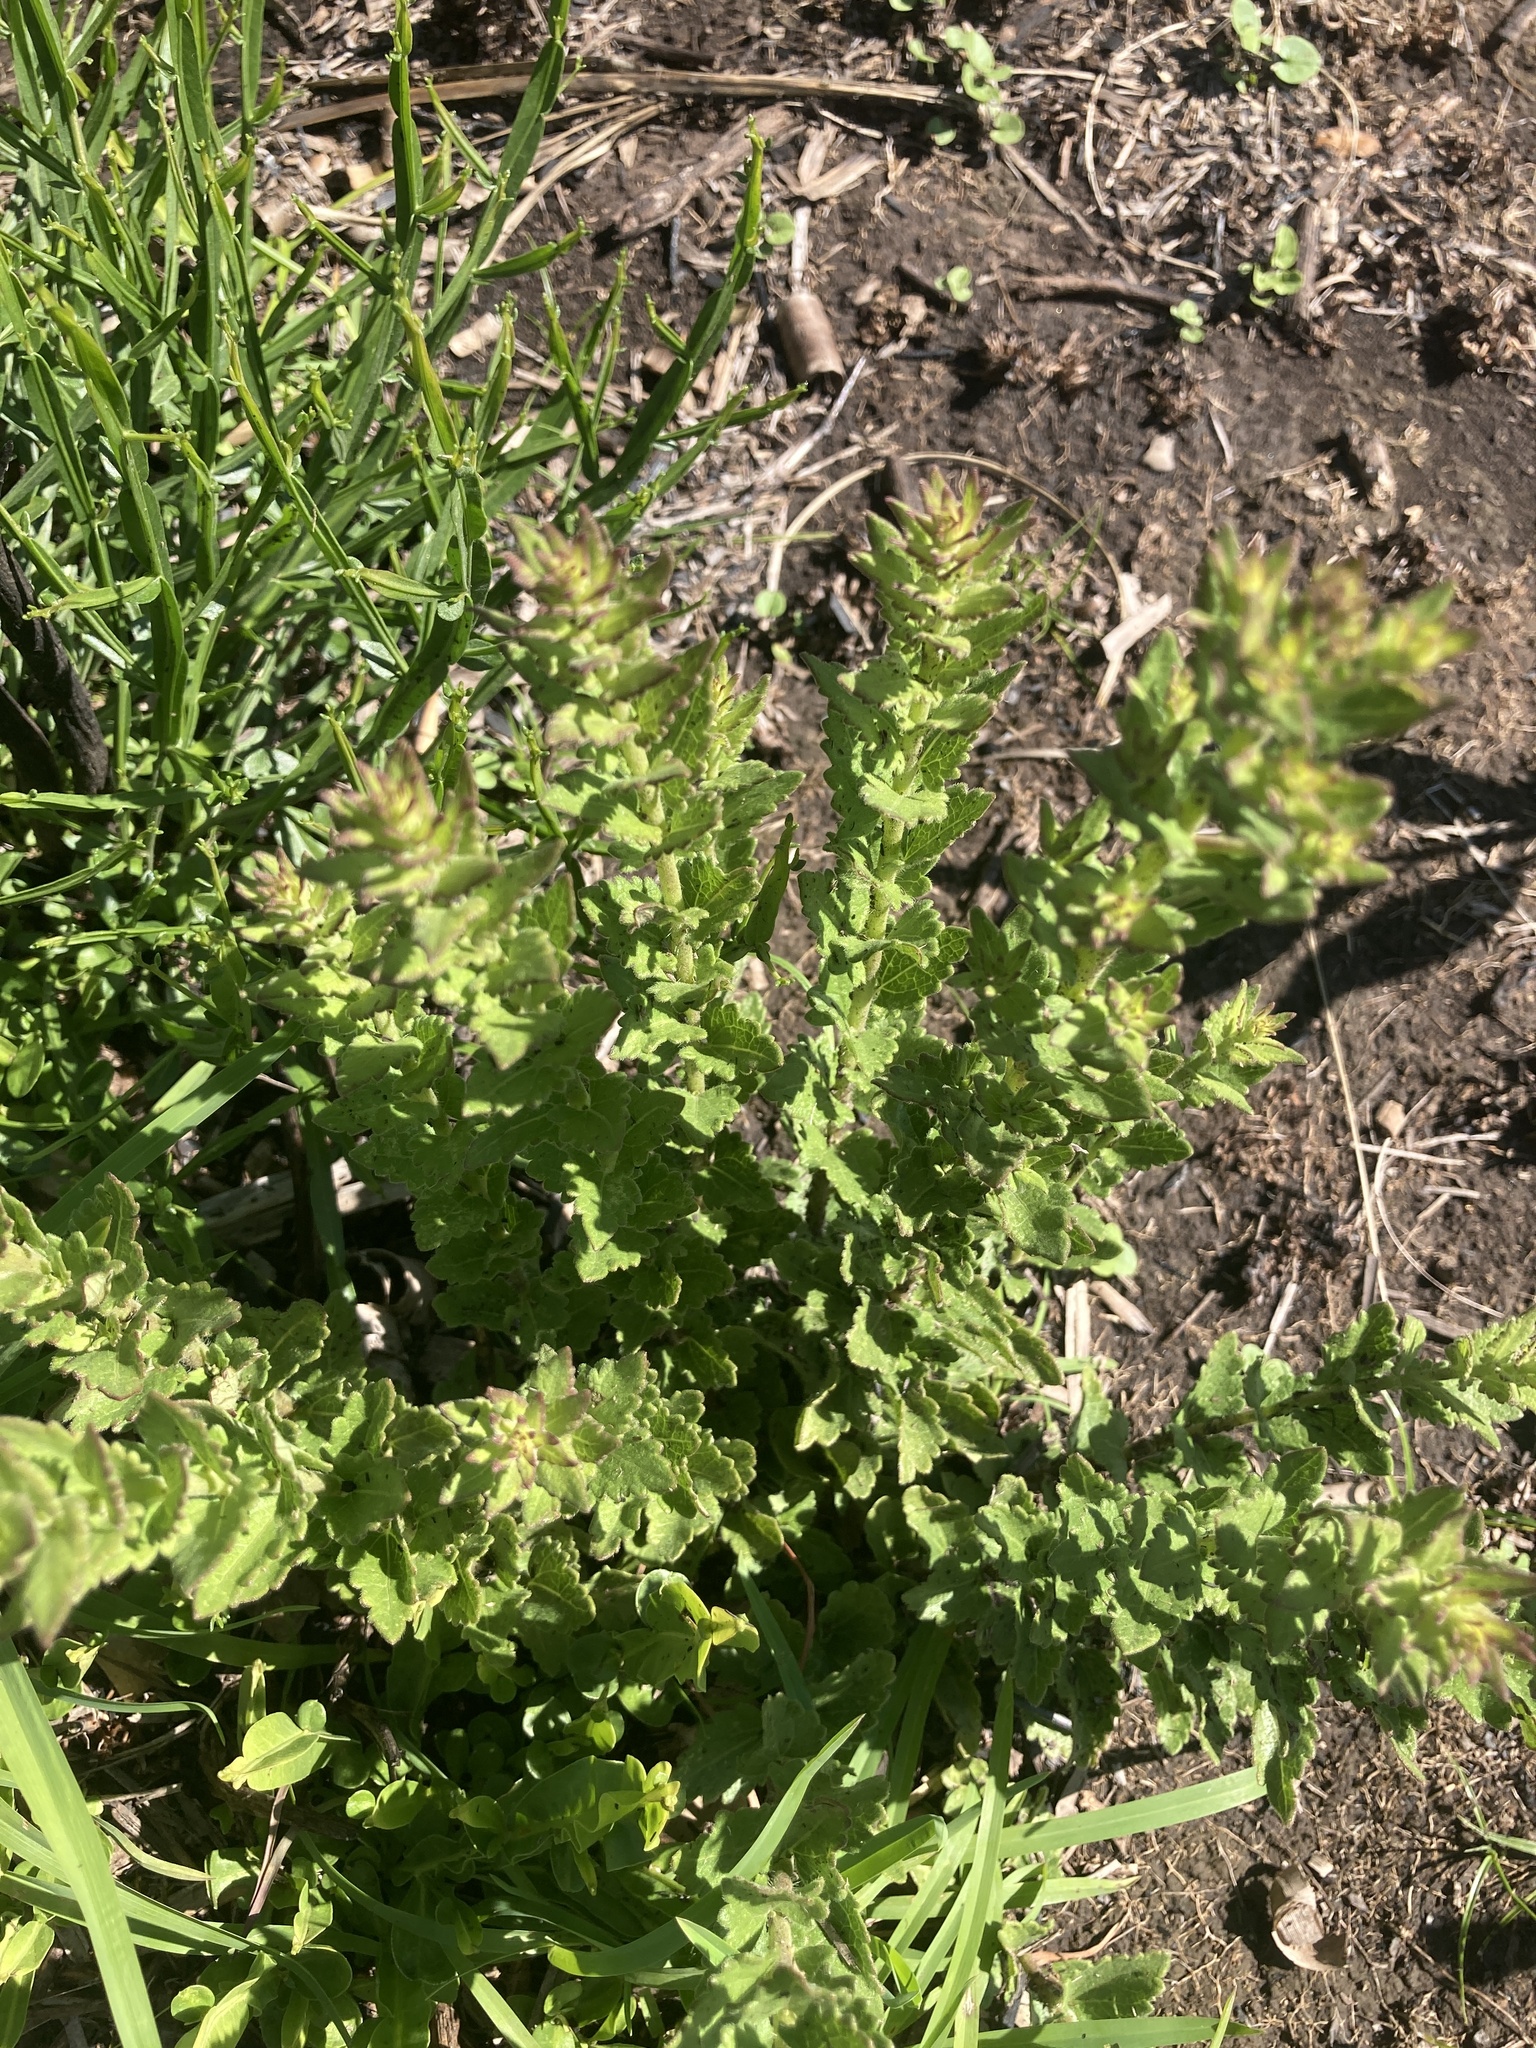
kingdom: Plantae
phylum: Tracheophyta
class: Magnoliopsida
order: Asterales
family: Asteraceae
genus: Chromolaena
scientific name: Chromolaena hirsuta
